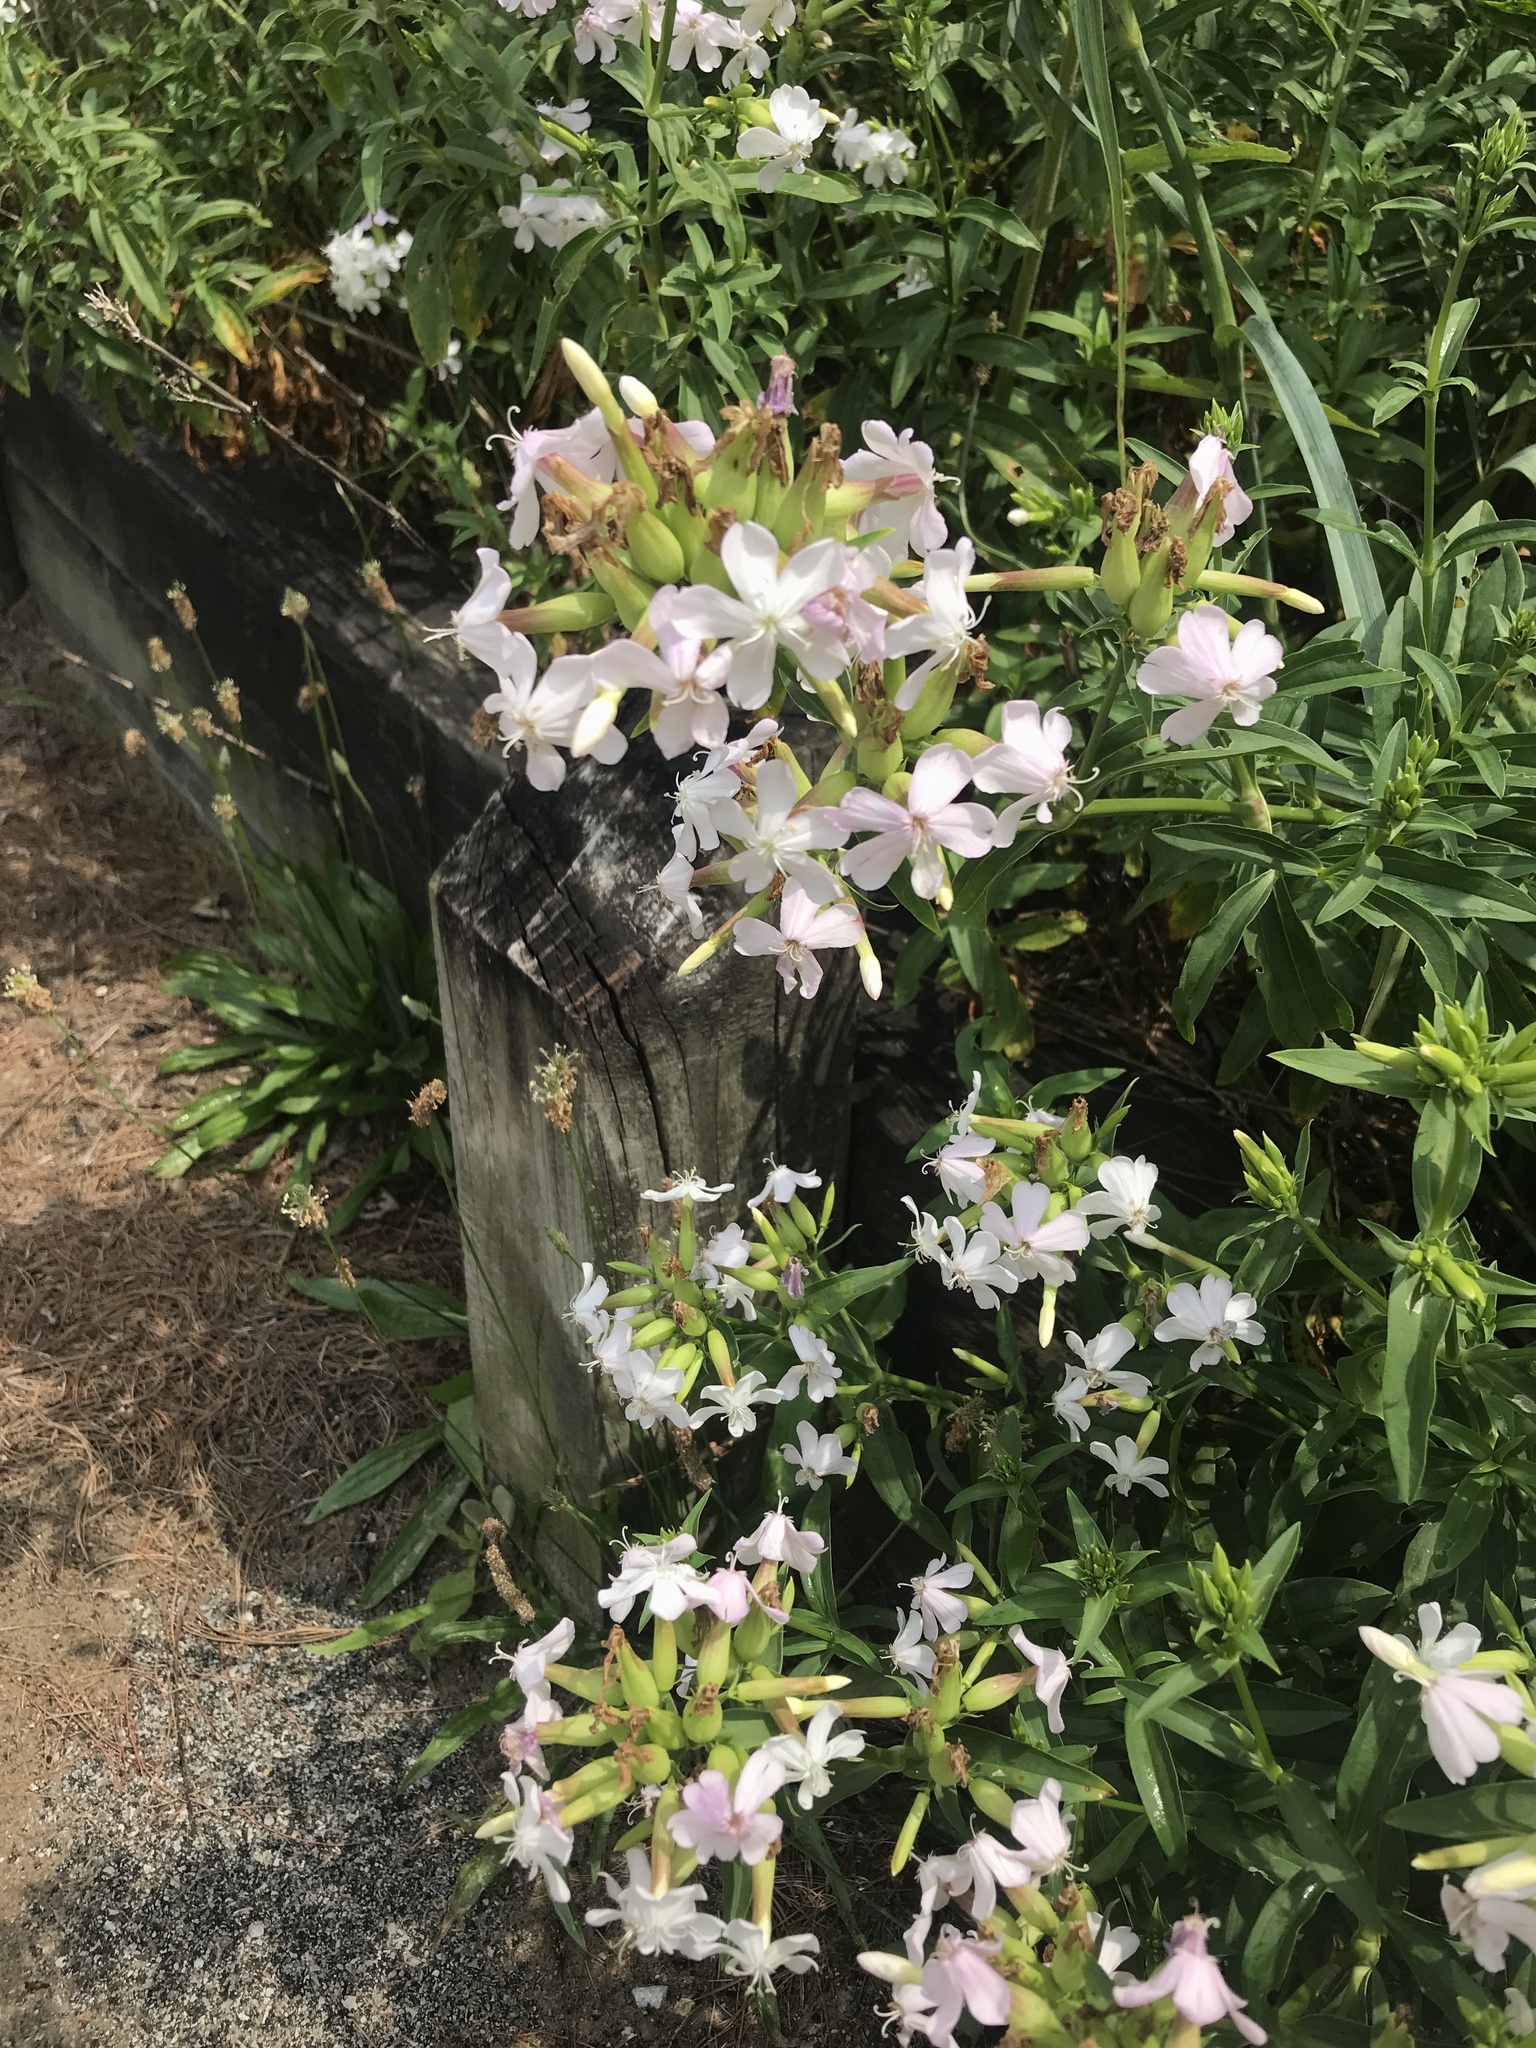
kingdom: Plantae
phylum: Tracheophyta
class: Magnoliopsida
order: Caryophyllales
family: Caryophyllaceae
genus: Saponaria
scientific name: Saponaria officinalis
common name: Soapwort
